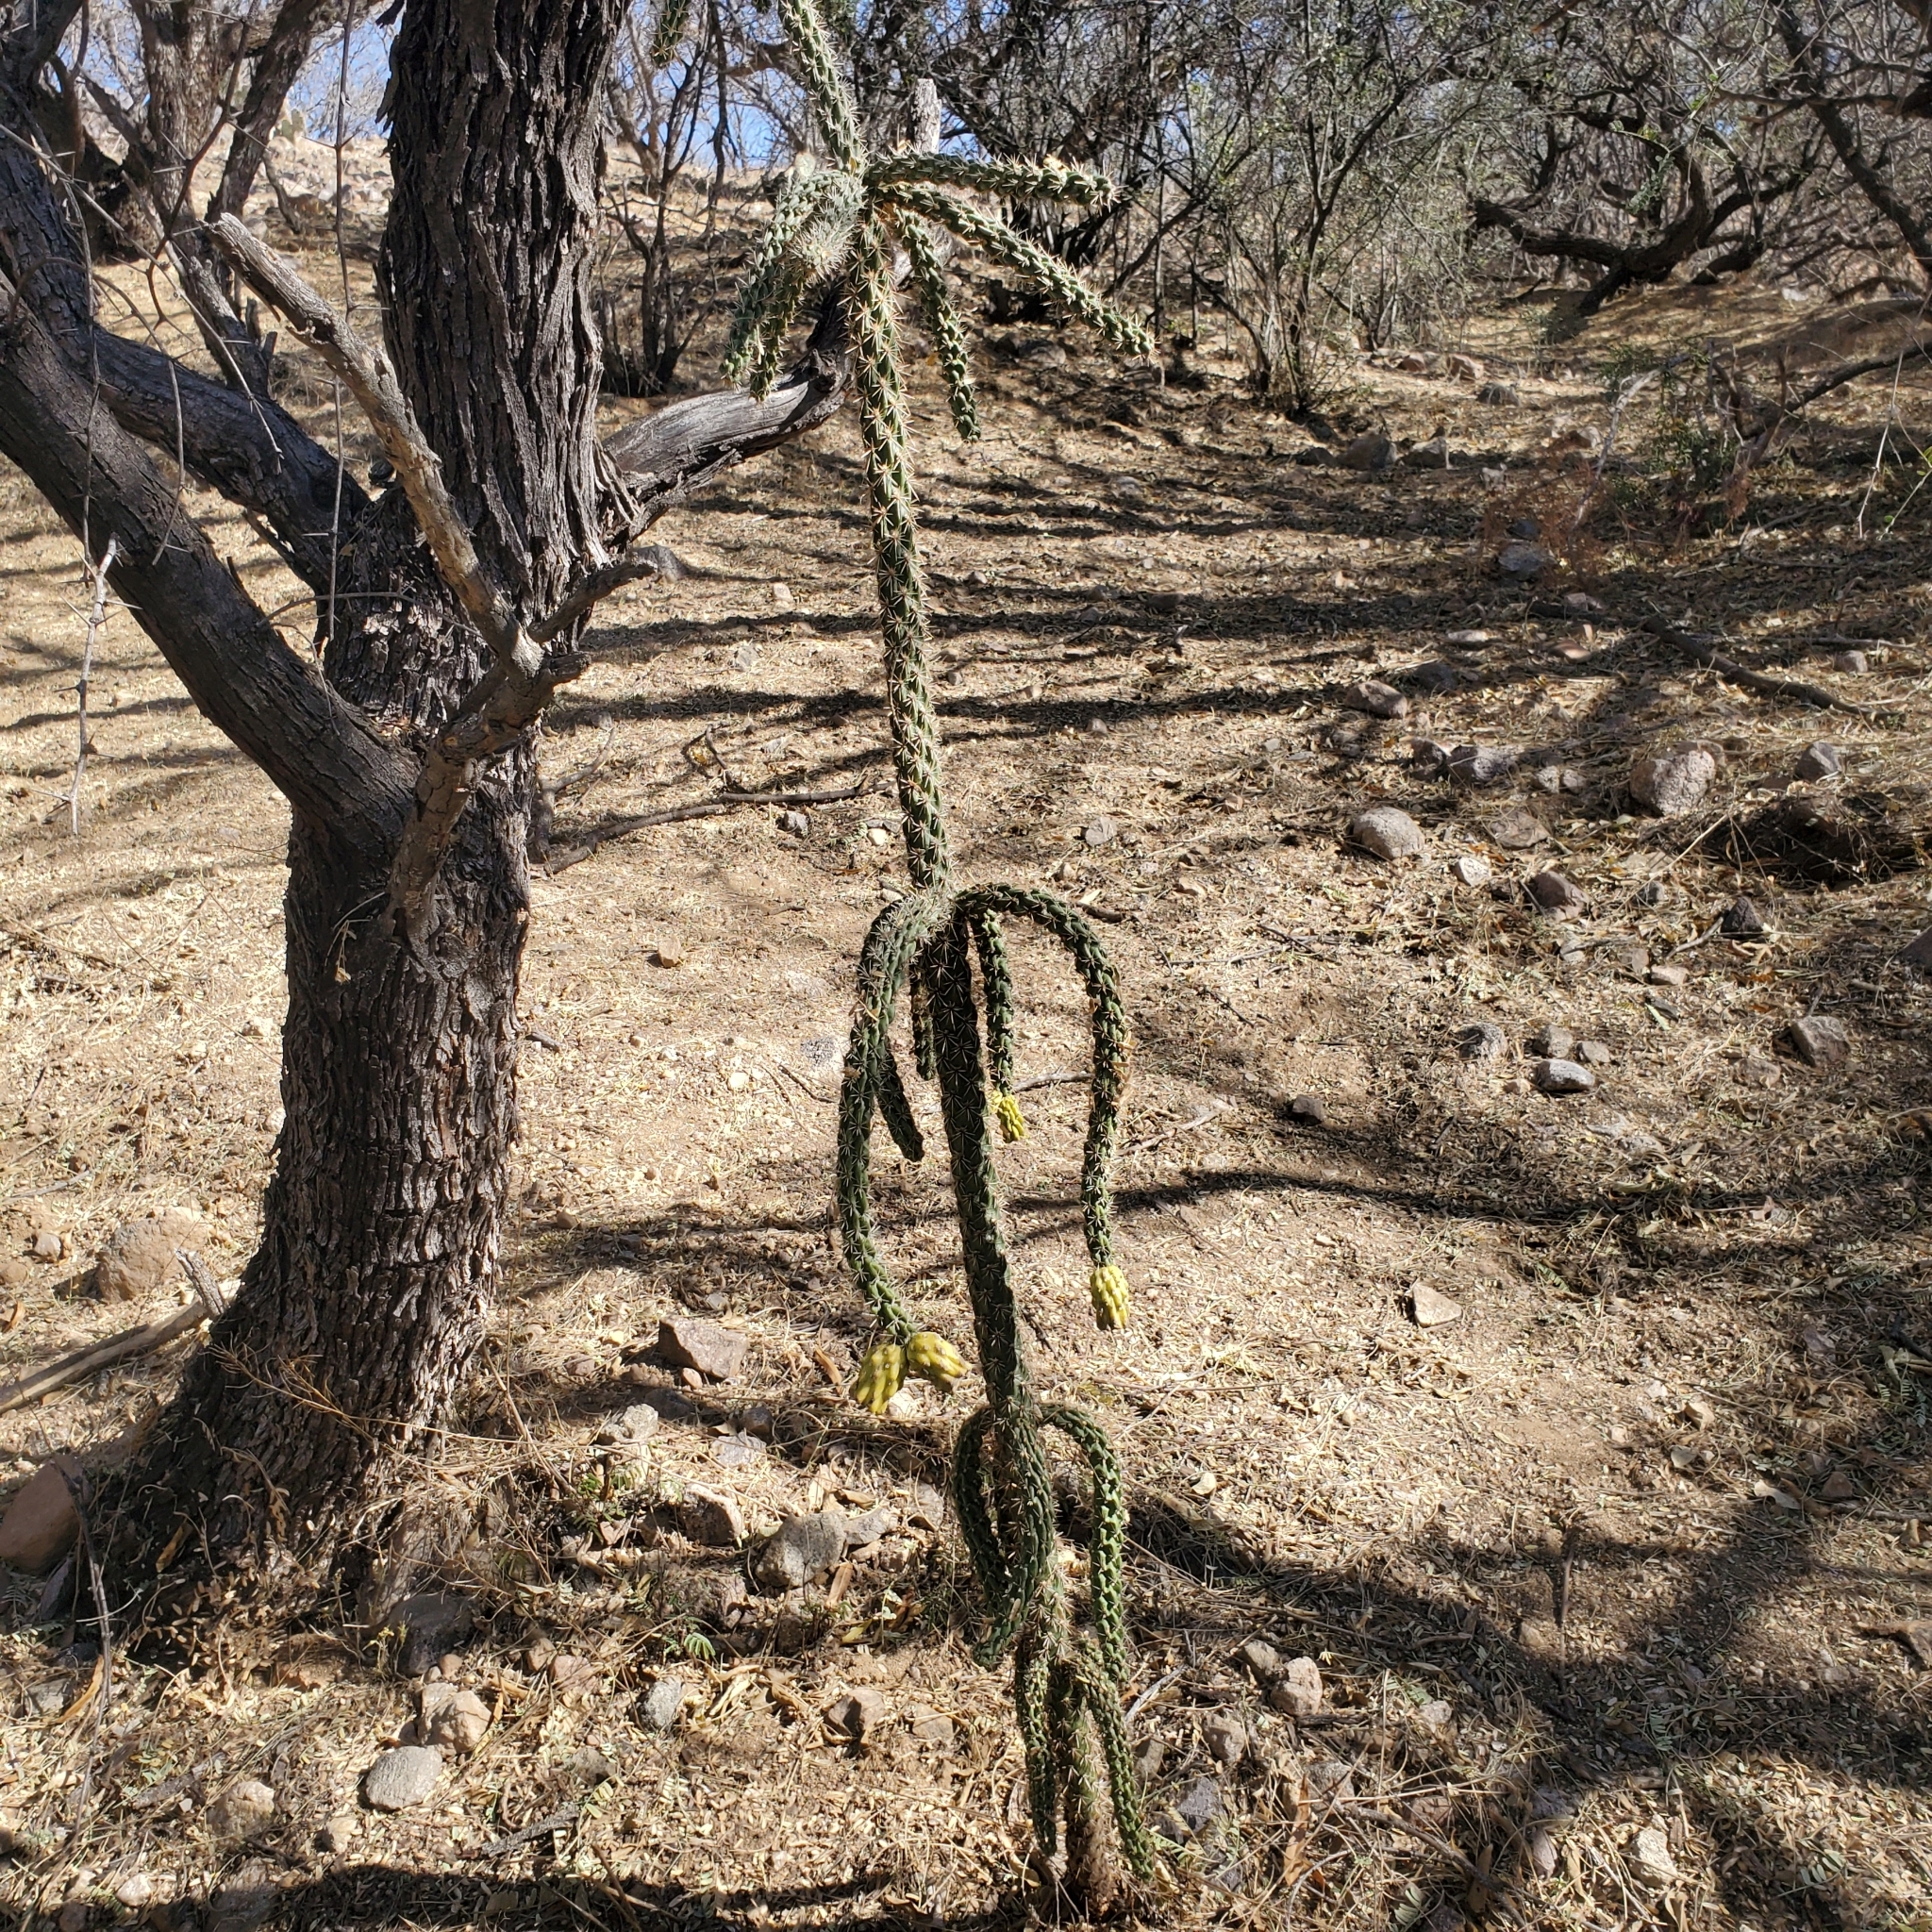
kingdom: Plantae
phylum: Tracheophyta
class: Magnoliopsida
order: Caryophyllales
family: Cactaceae
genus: Cylindropuntia
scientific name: Cylindropuntia imbricata
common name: Candelabrum cactus
